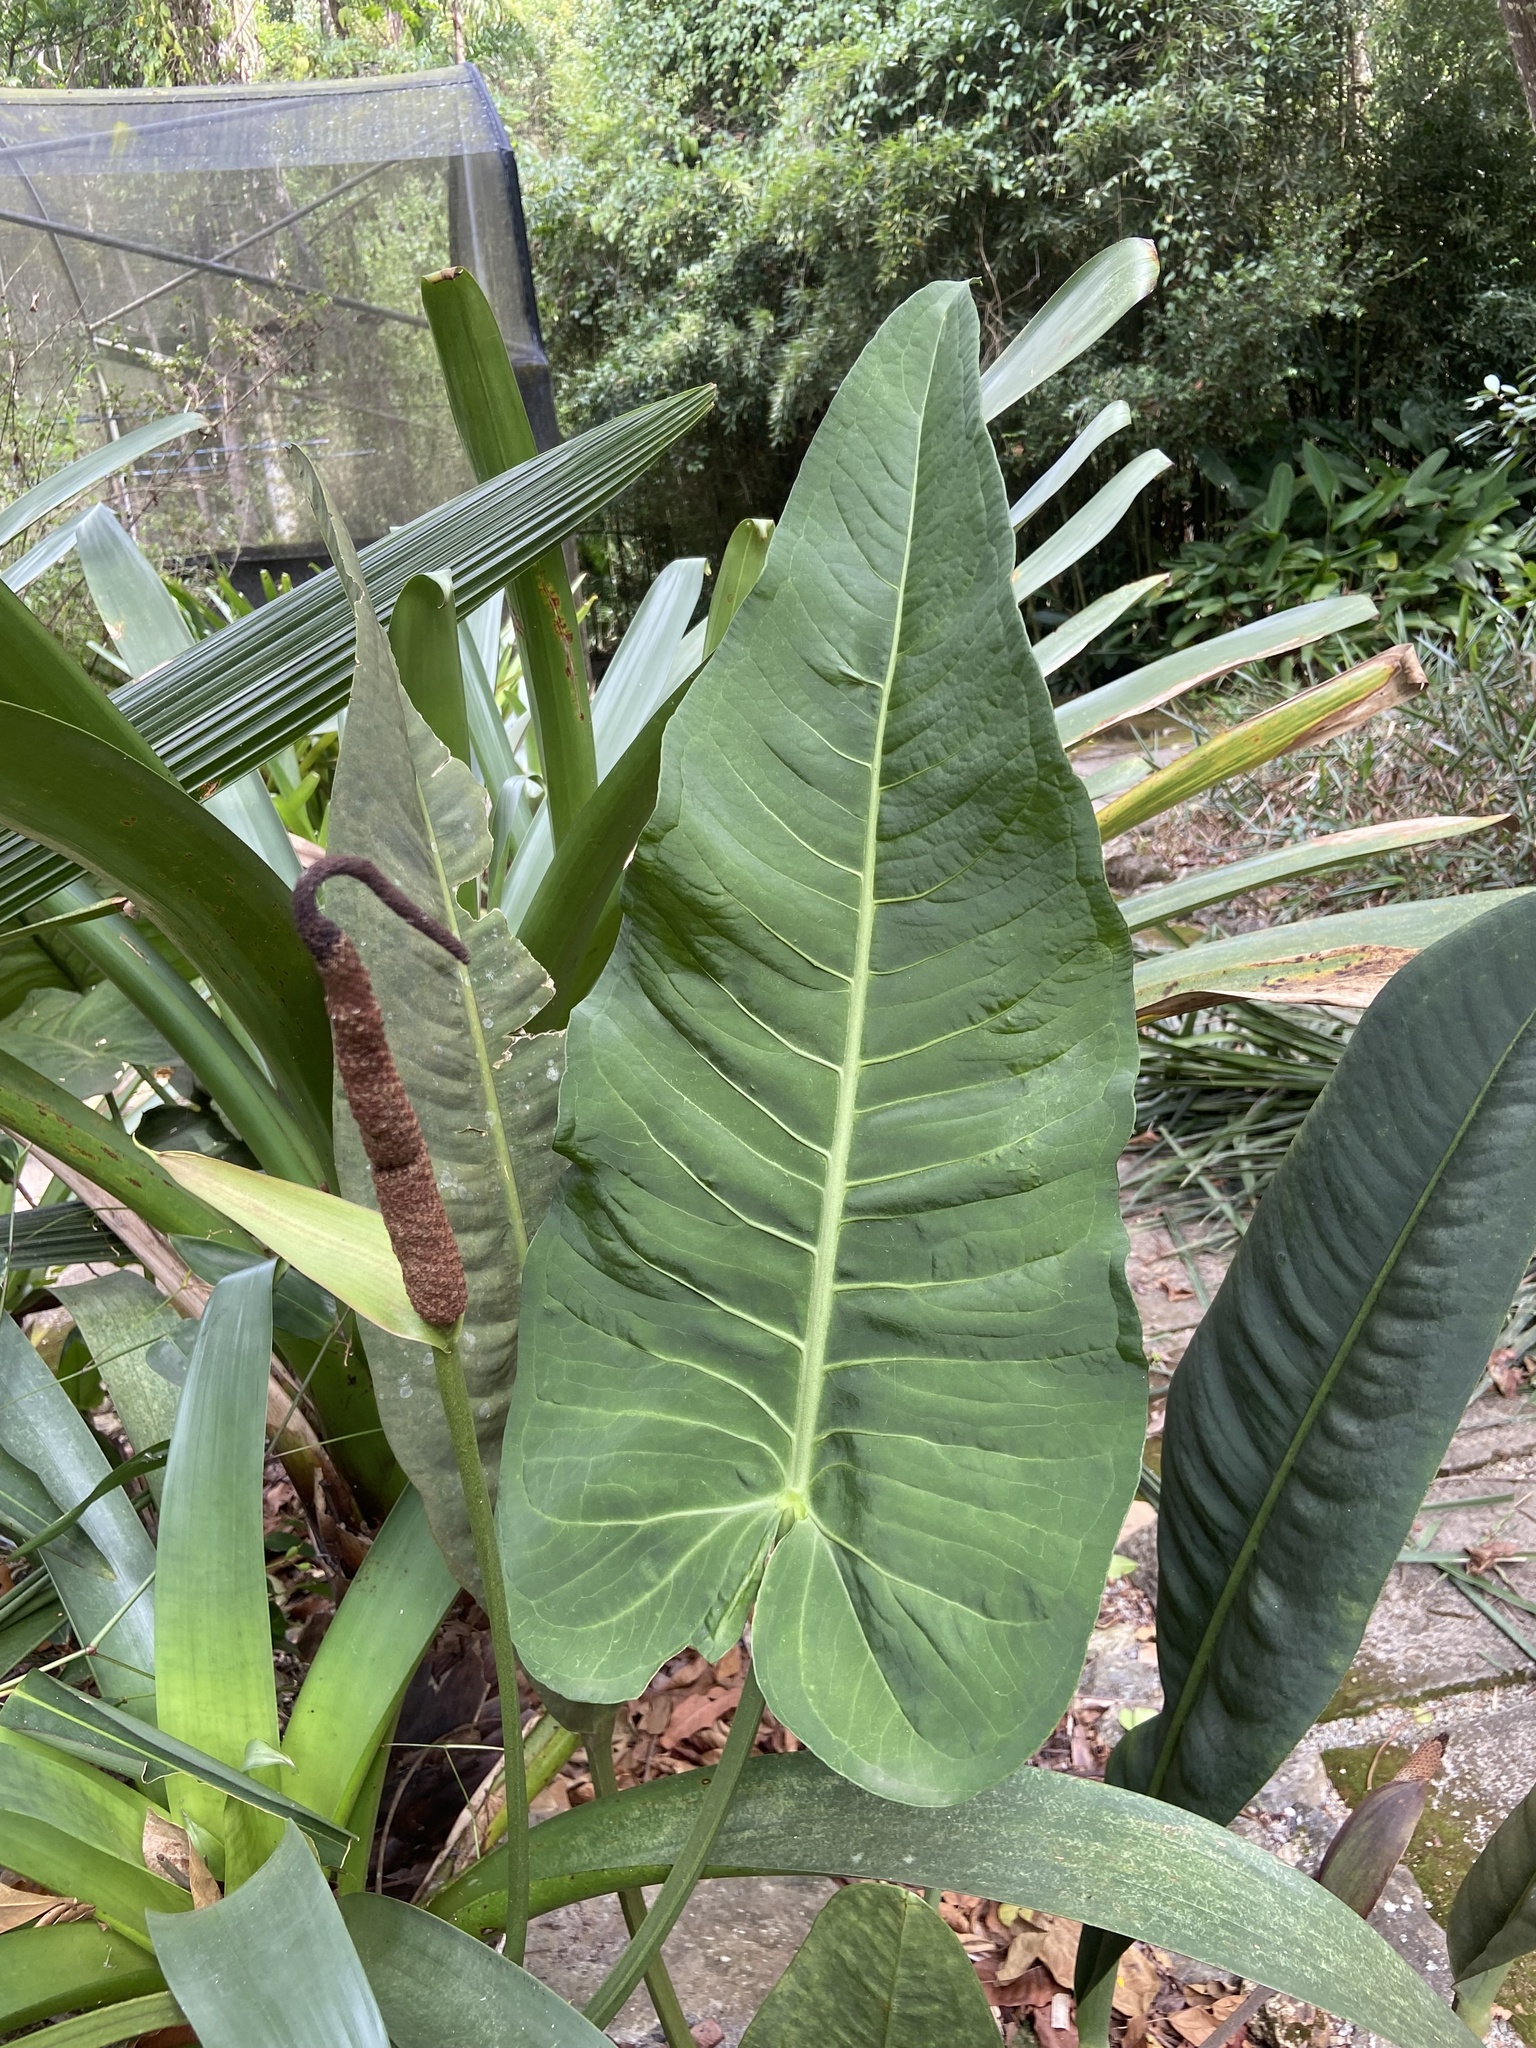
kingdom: Plantae
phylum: Tracheophyta
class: Liliopsida
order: Alismatales
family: Araceae
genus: Anthurium
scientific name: Anthurium xanthophylloides
